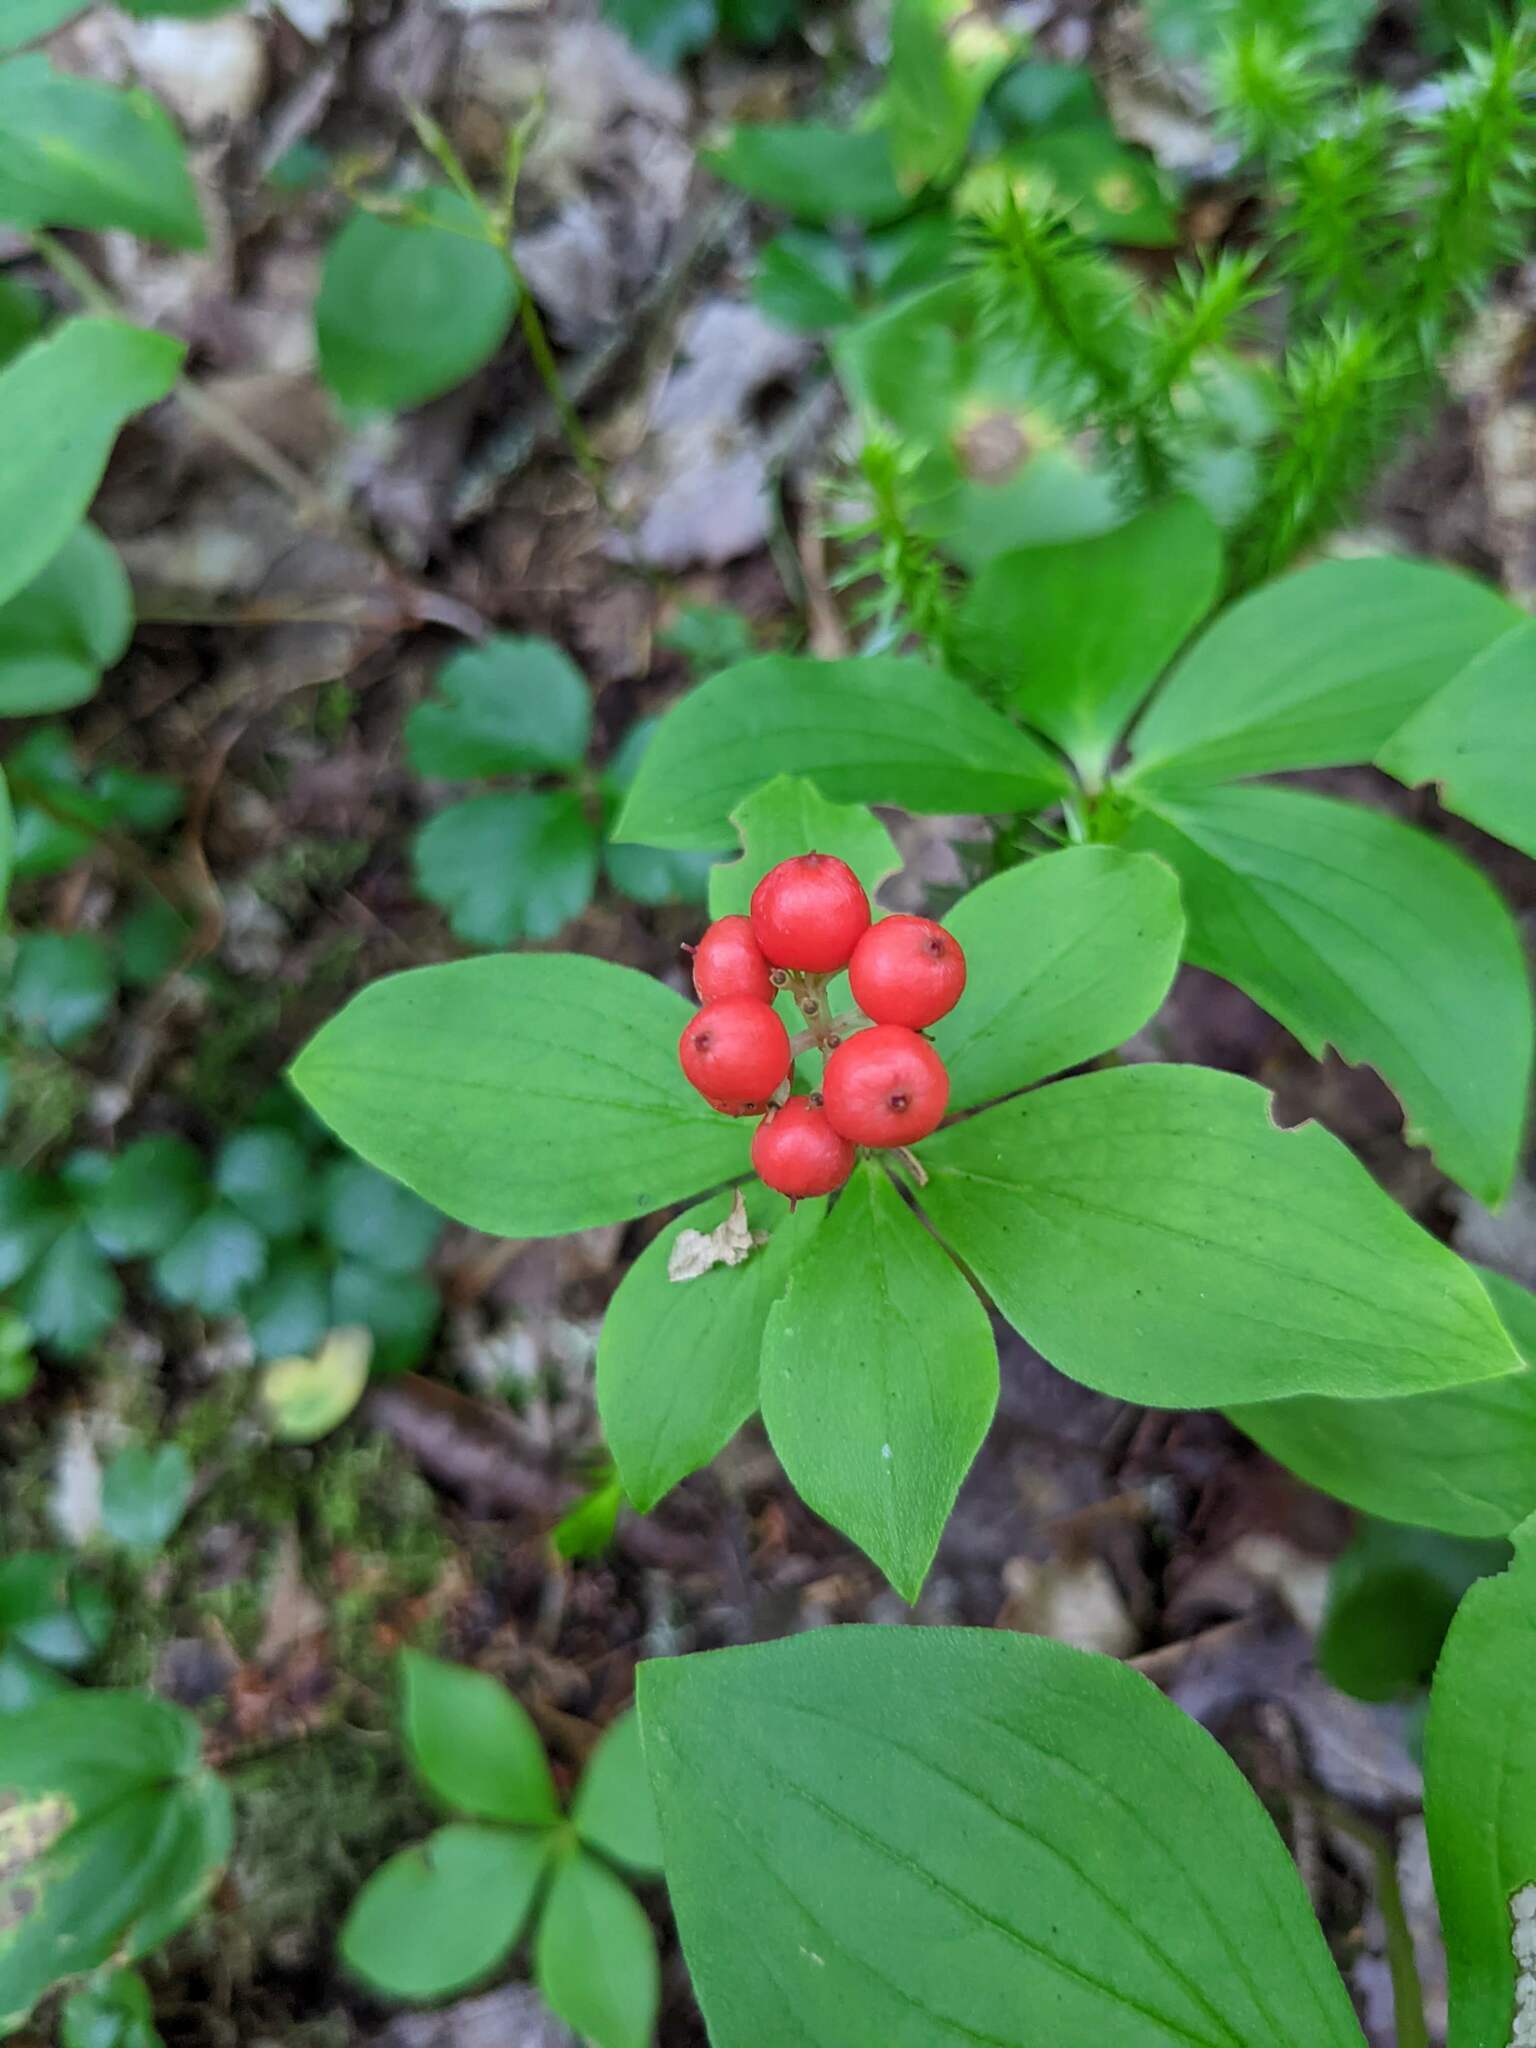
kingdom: Plantae
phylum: Tracheophyta
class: Magnoliopsida
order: Cornales
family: Cornaceae
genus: Cornus
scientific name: Cornus canadensis
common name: Creeping dogwood
